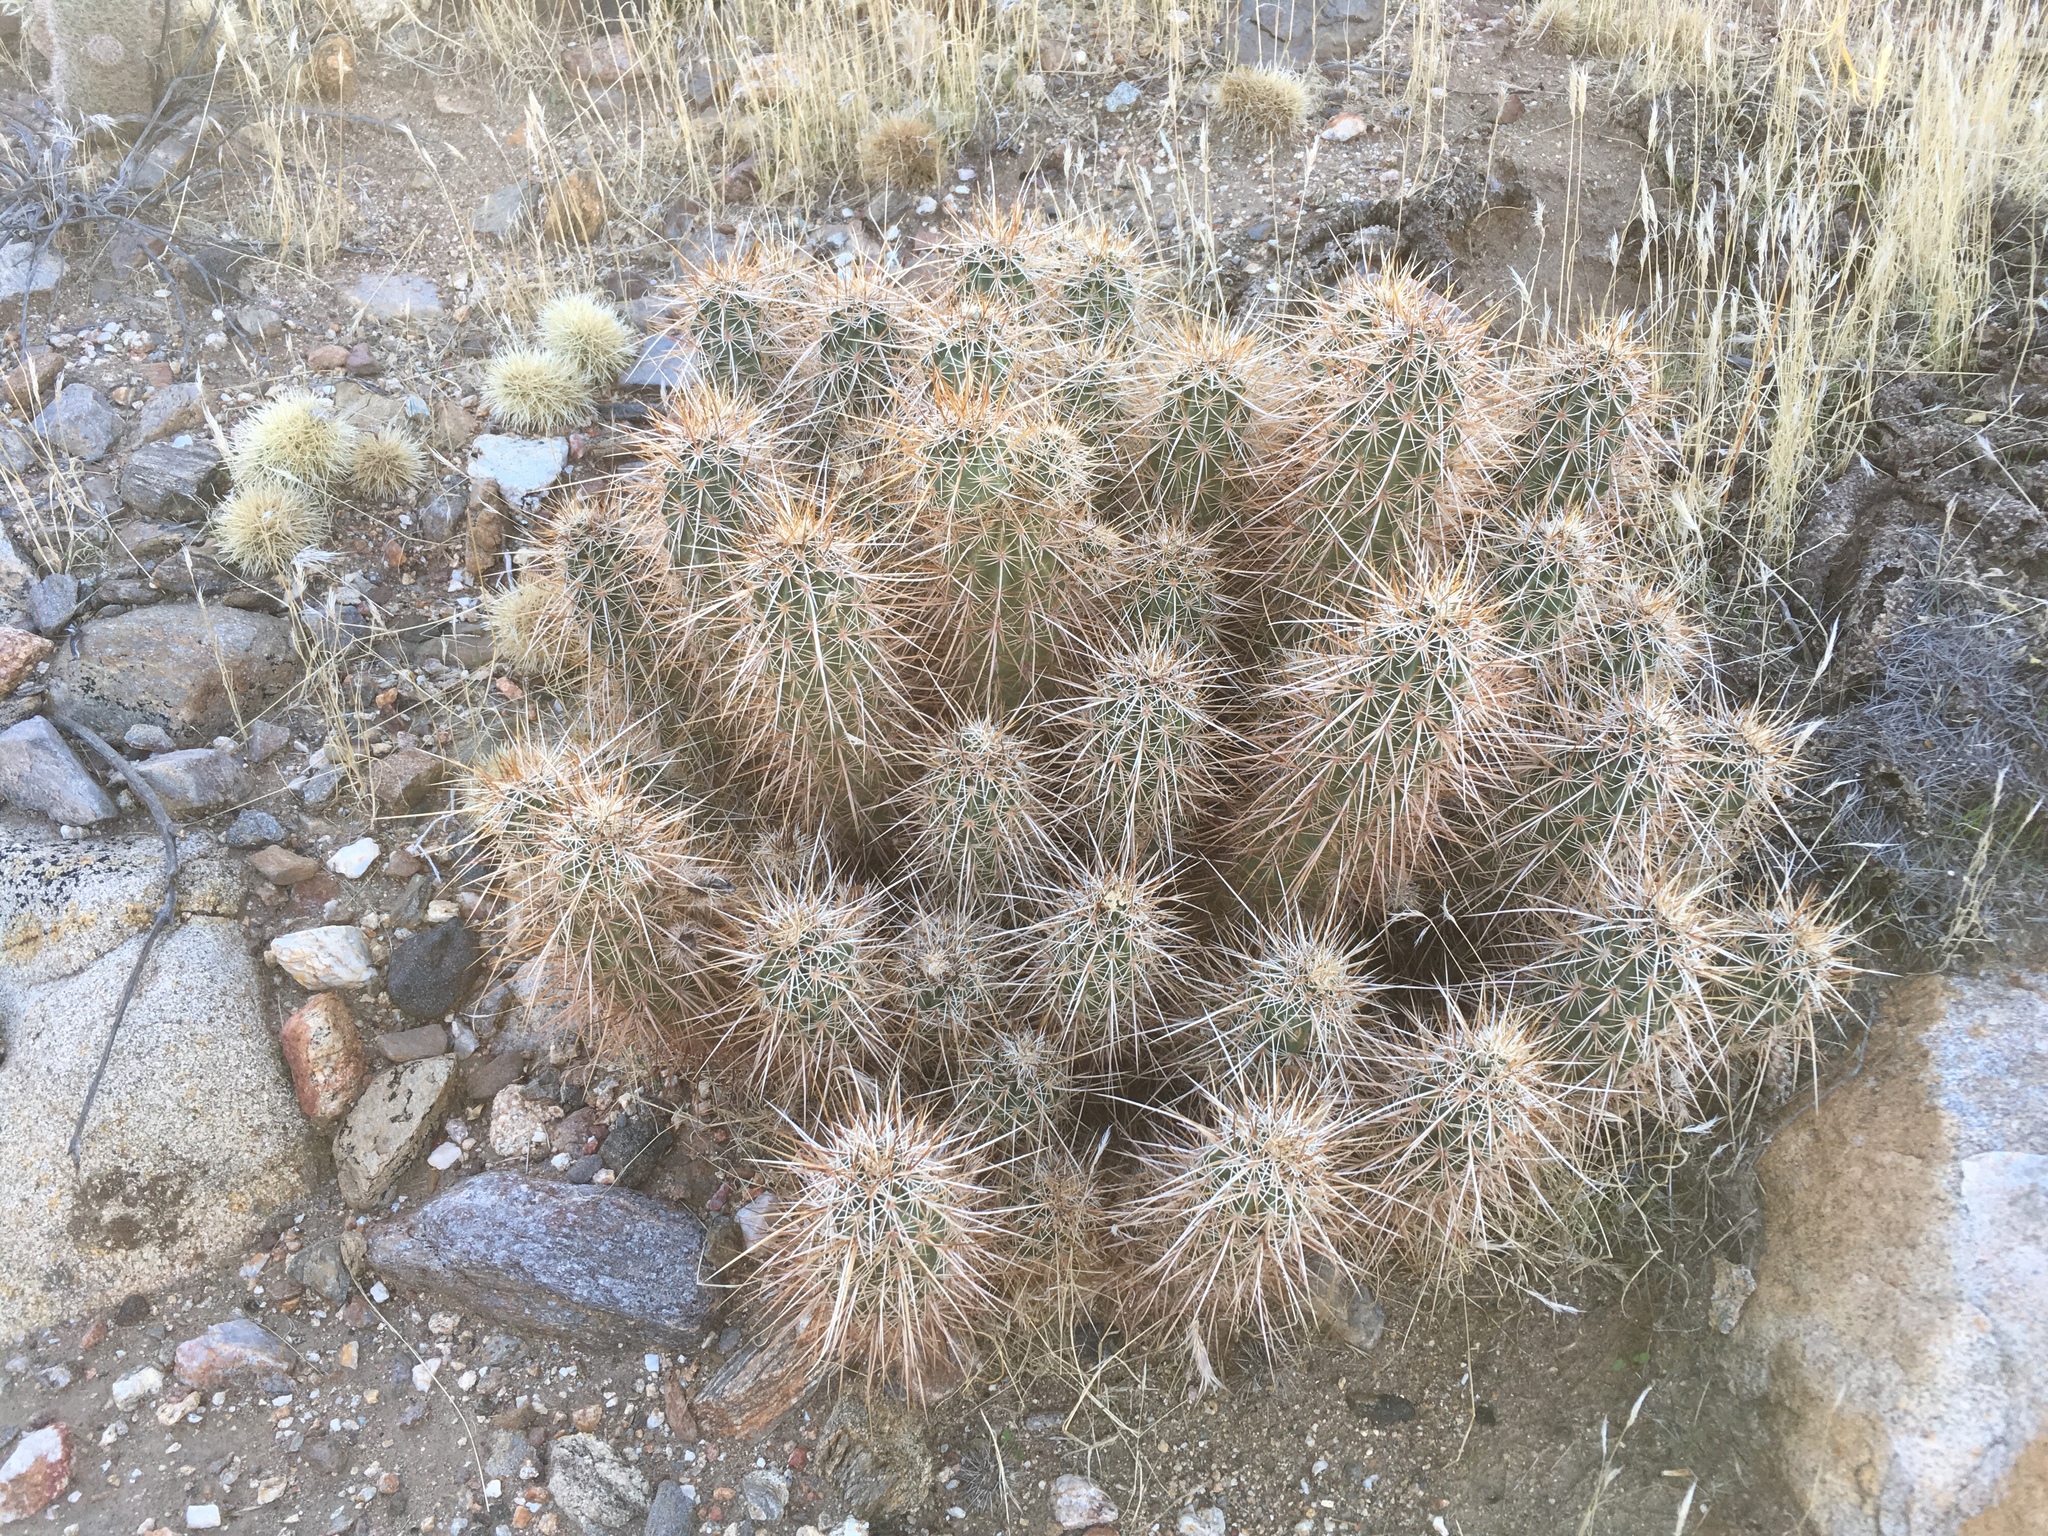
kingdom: Plantae
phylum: Tracheophyta
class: Magnoliopsida
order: Caryophyllales
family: Cactaceae
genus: Echinocereus
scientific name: Echinocereus engelmannii
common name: Engelmann's hedgehog cactus
